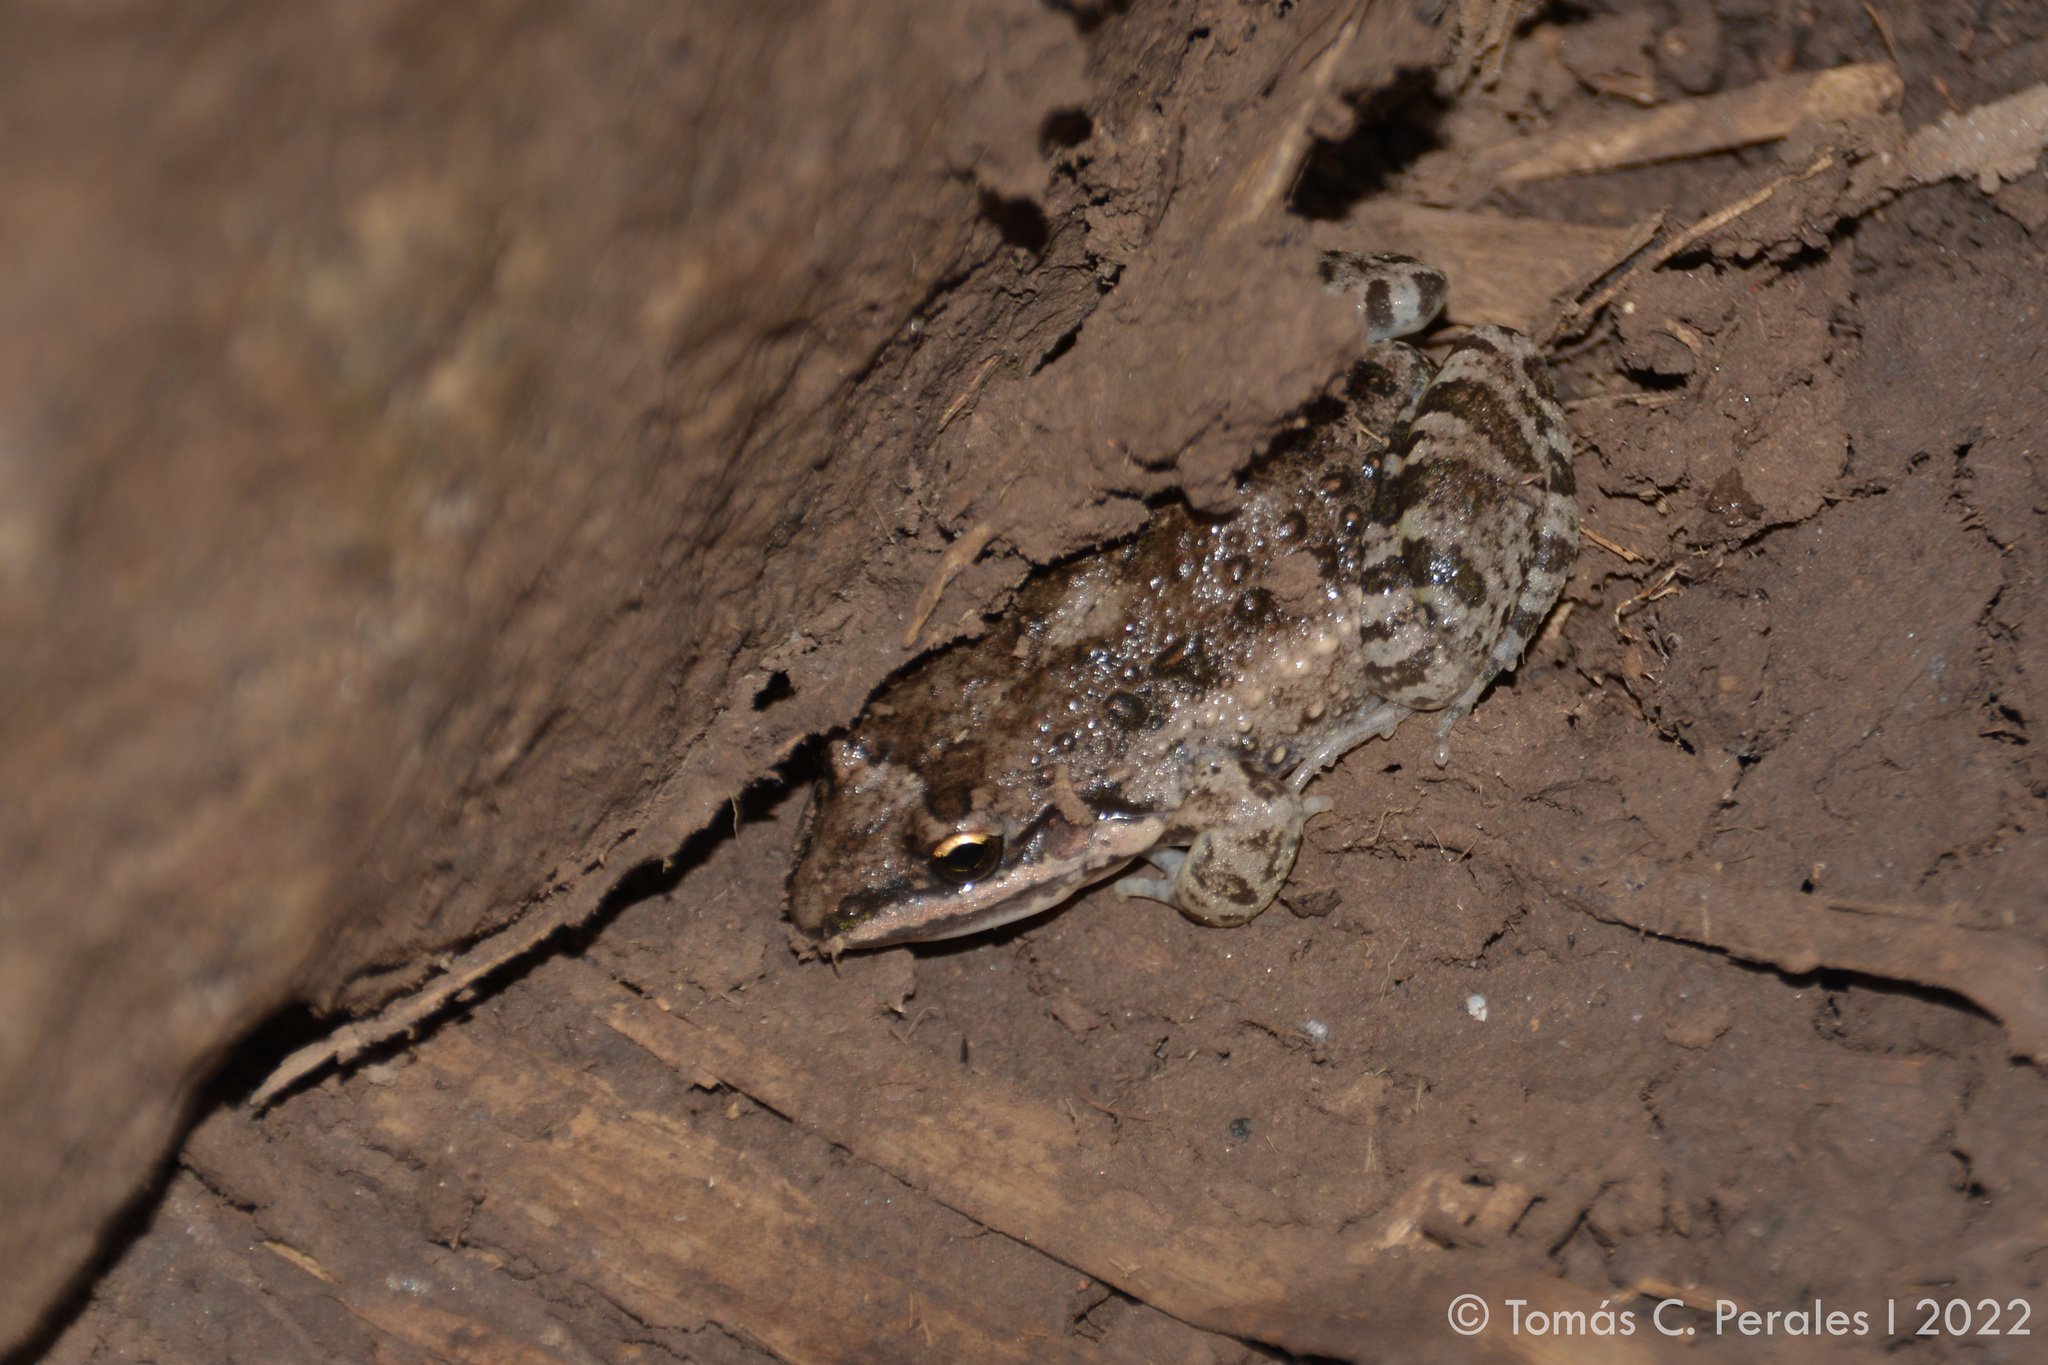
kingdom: Animalia
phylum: Chordata
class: Amphibia
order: Anura
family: Leptodactylidae
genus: Leptodactylus
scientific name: Leptodactylus latinasus
